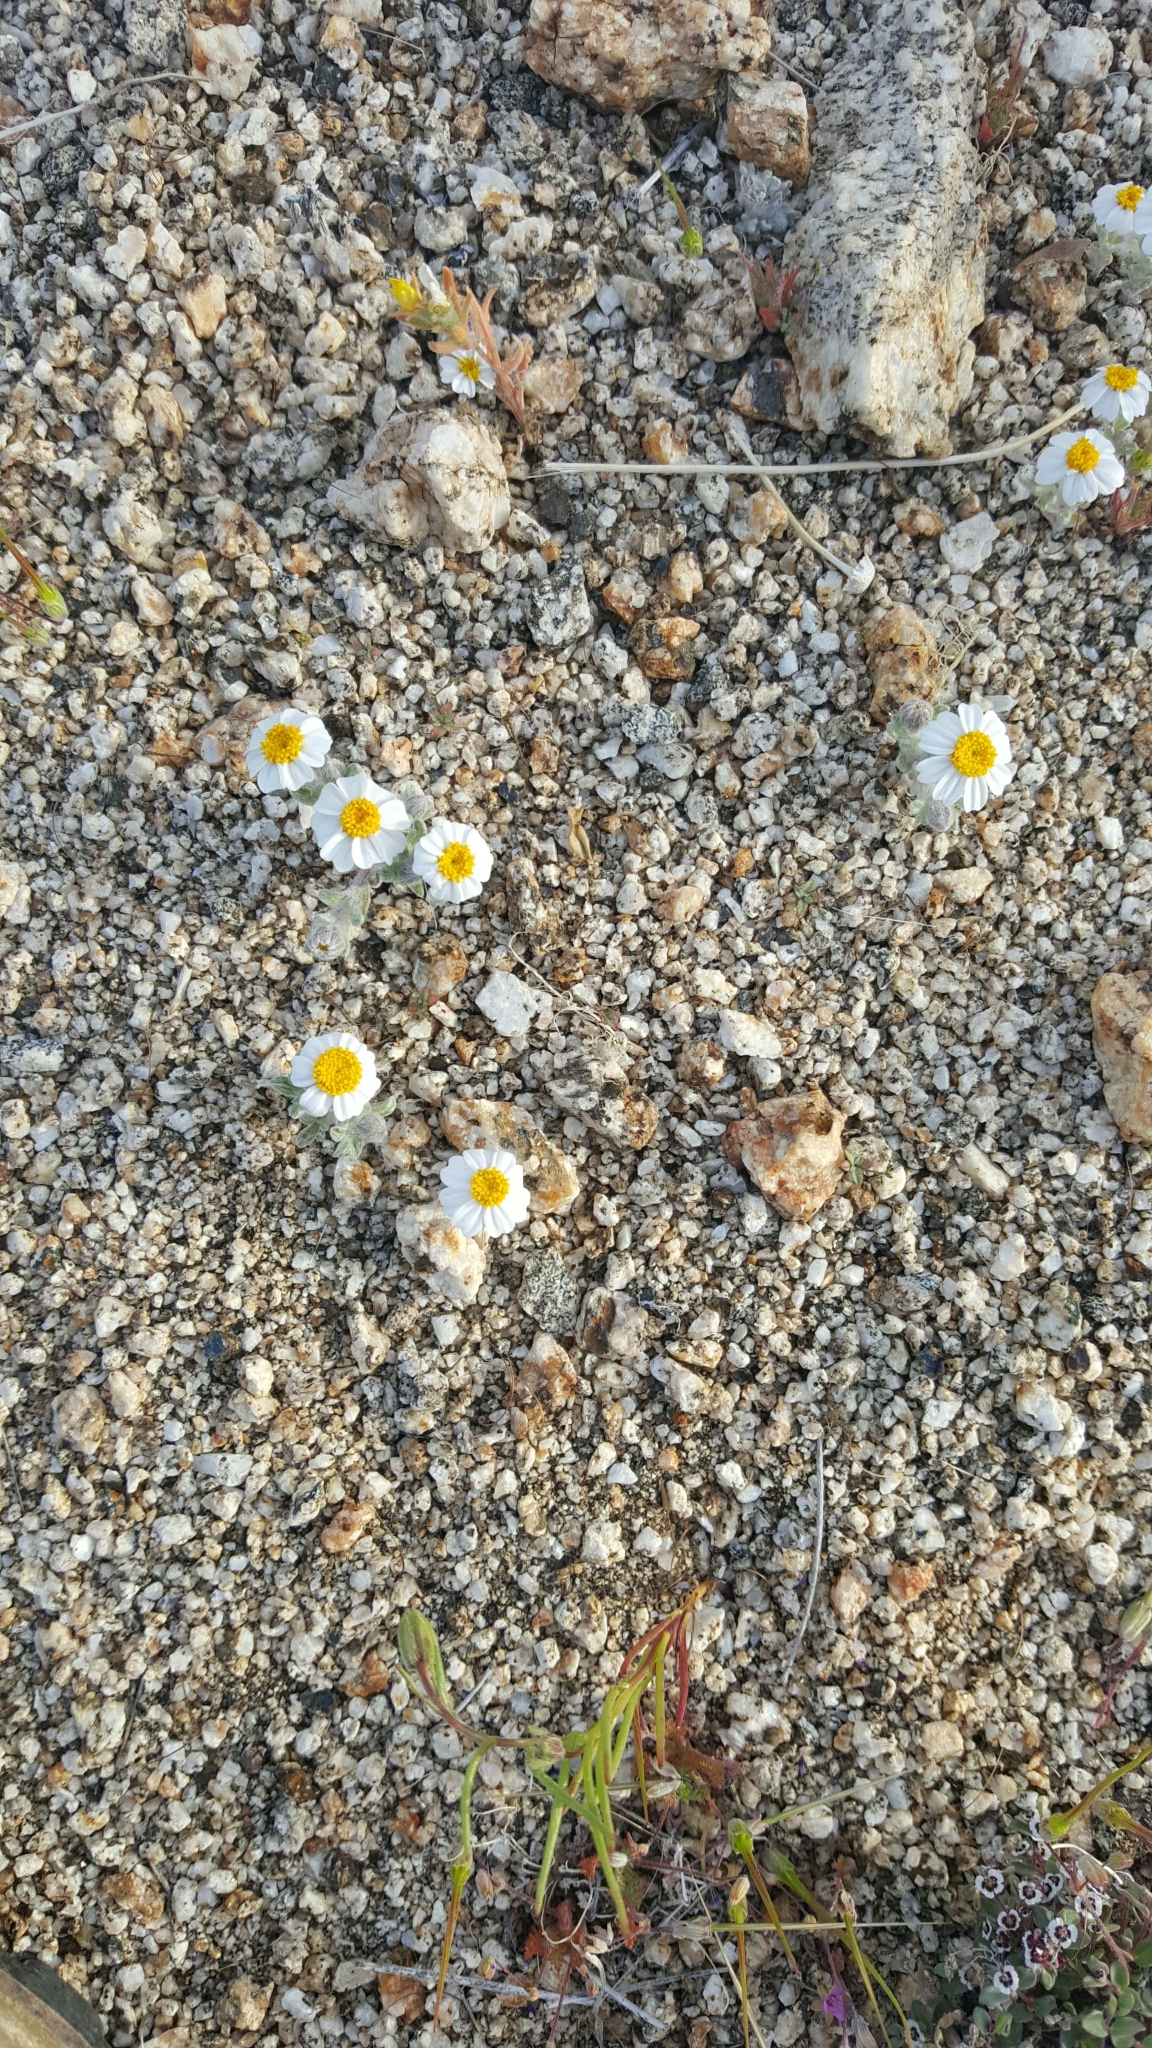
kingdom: Plantae
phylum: Tracheophyta
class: Magnoliopsida
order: Asterales
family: Asteraceae
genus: Eriophyllum
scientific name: Eriophyllum wallacei
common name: Wallace's woolly daisy
